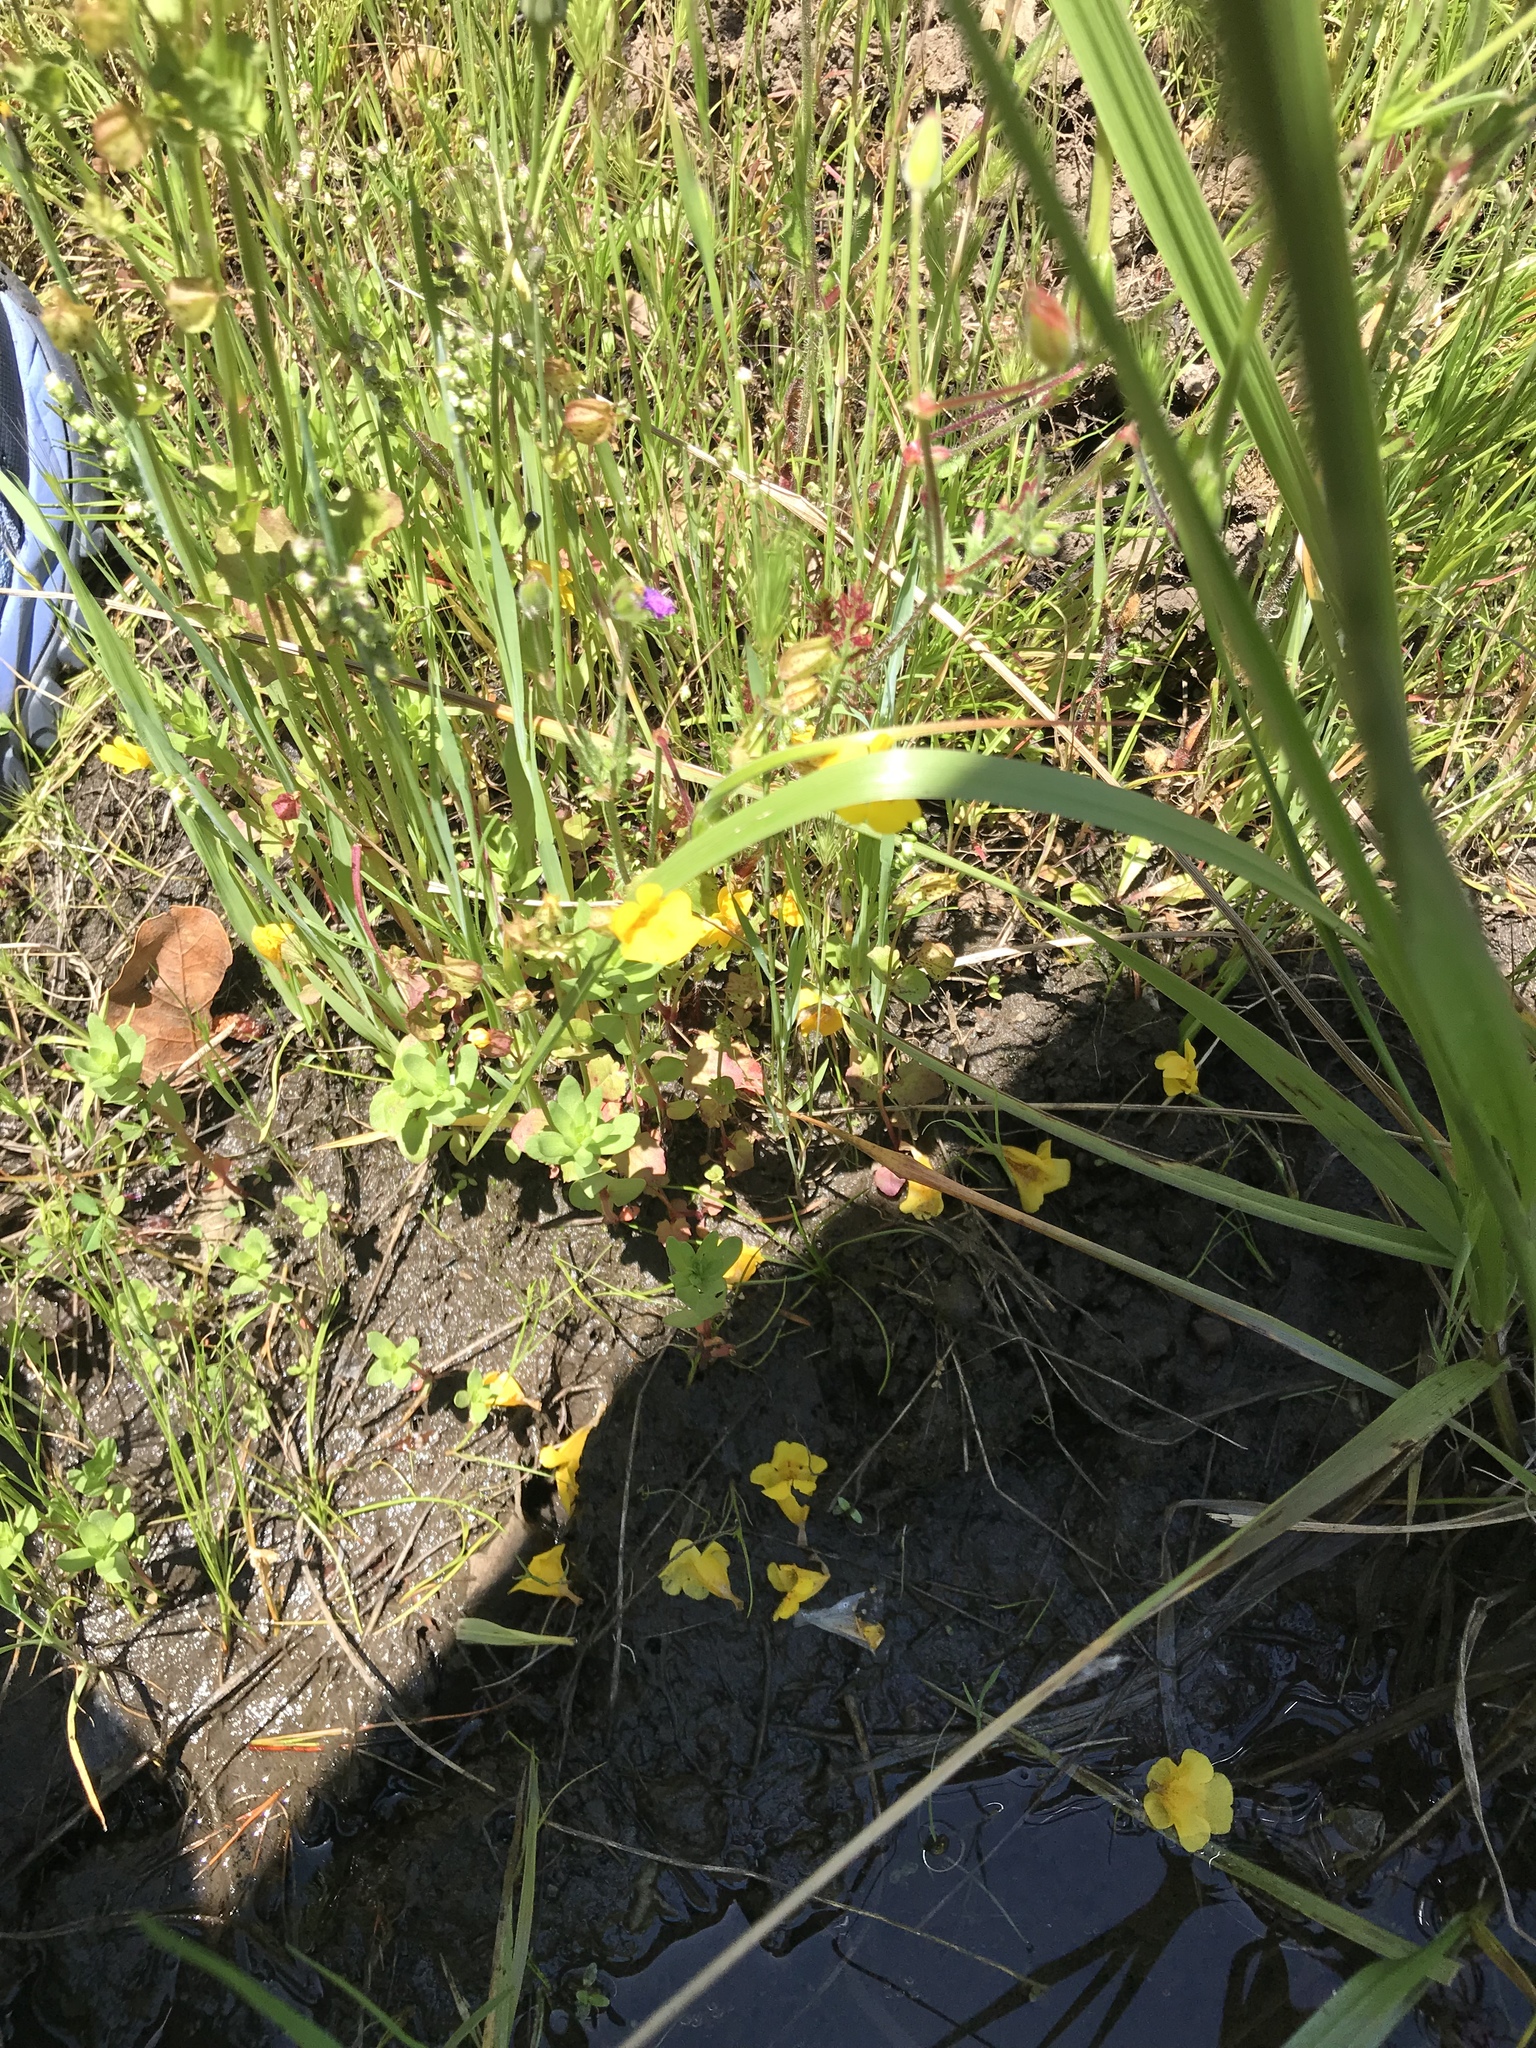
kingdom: Plantae
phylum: Tracheophyta
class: Magnoliopsida
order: Lamiales
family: Phrymaceae
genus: Erythranthe
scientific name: Erythranthe arvensis
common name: Field monkeyflower
